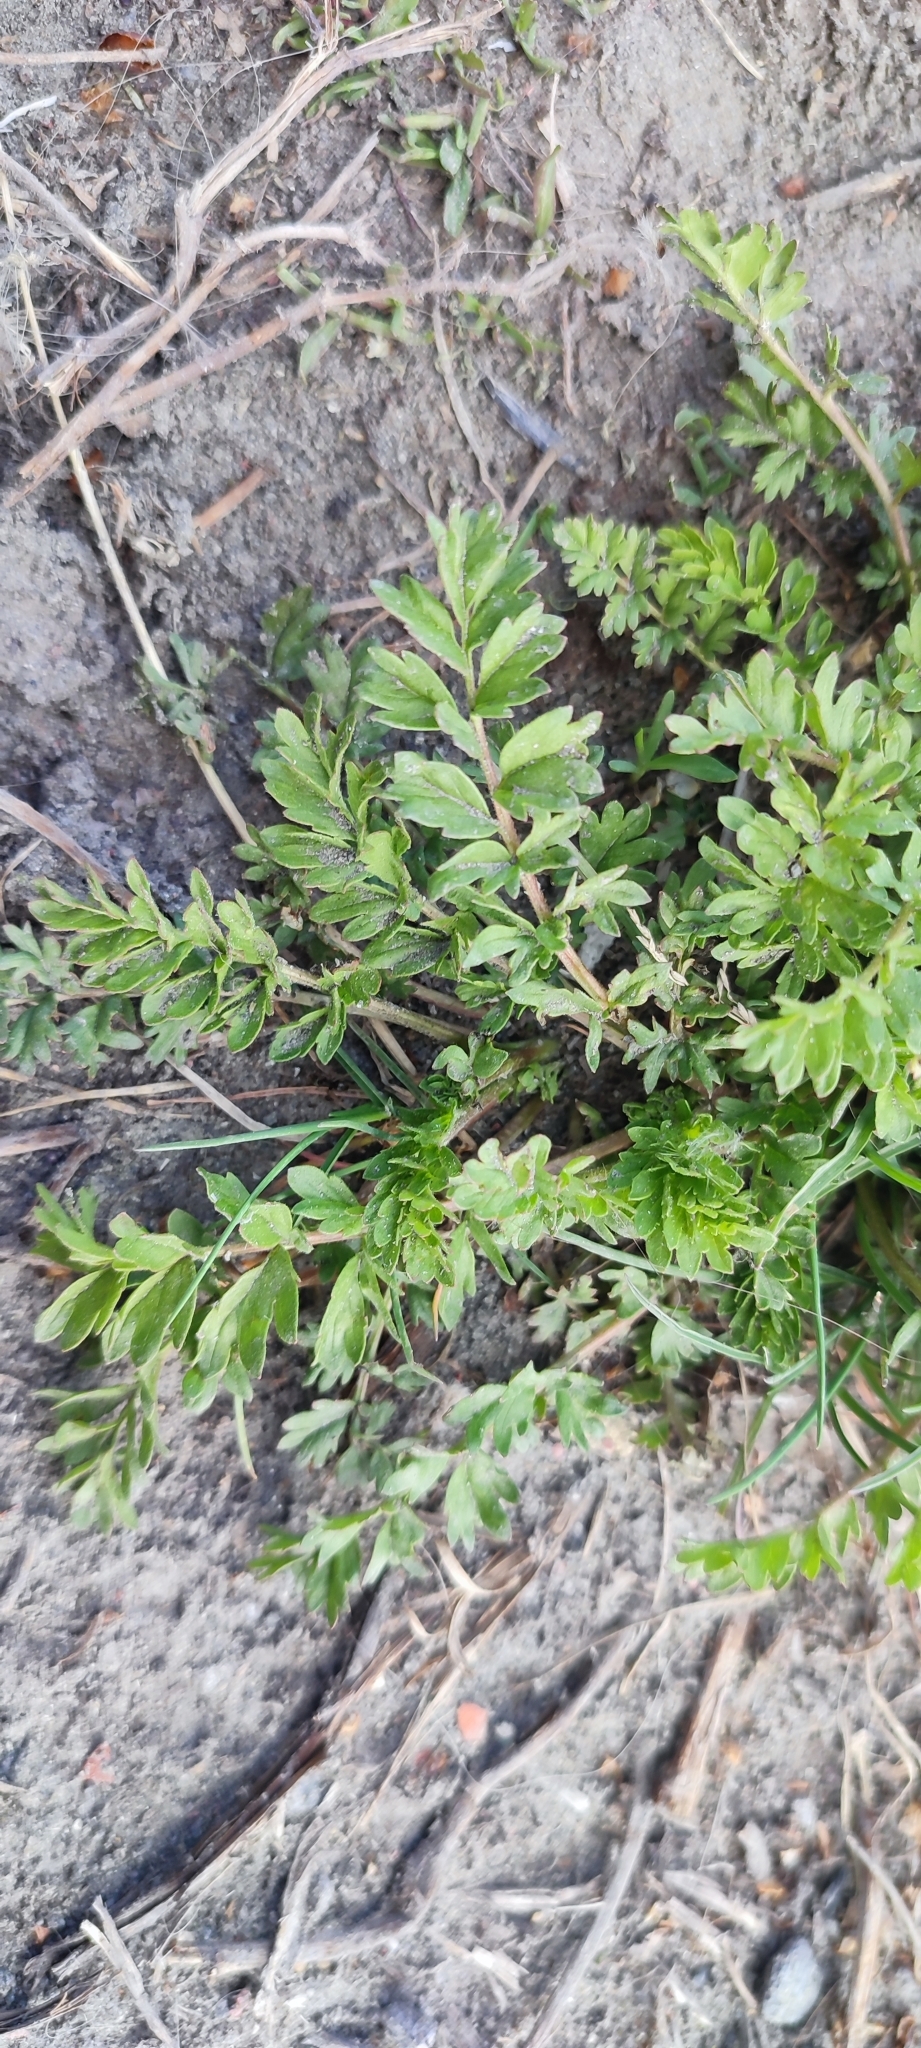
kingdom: Plantae
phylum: Tracheophyta
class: Magnoliopsida
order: Rosales
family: Rosaceae
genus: Potentilla
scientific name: Potentilla supina
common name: Prostrate cinquefoil
